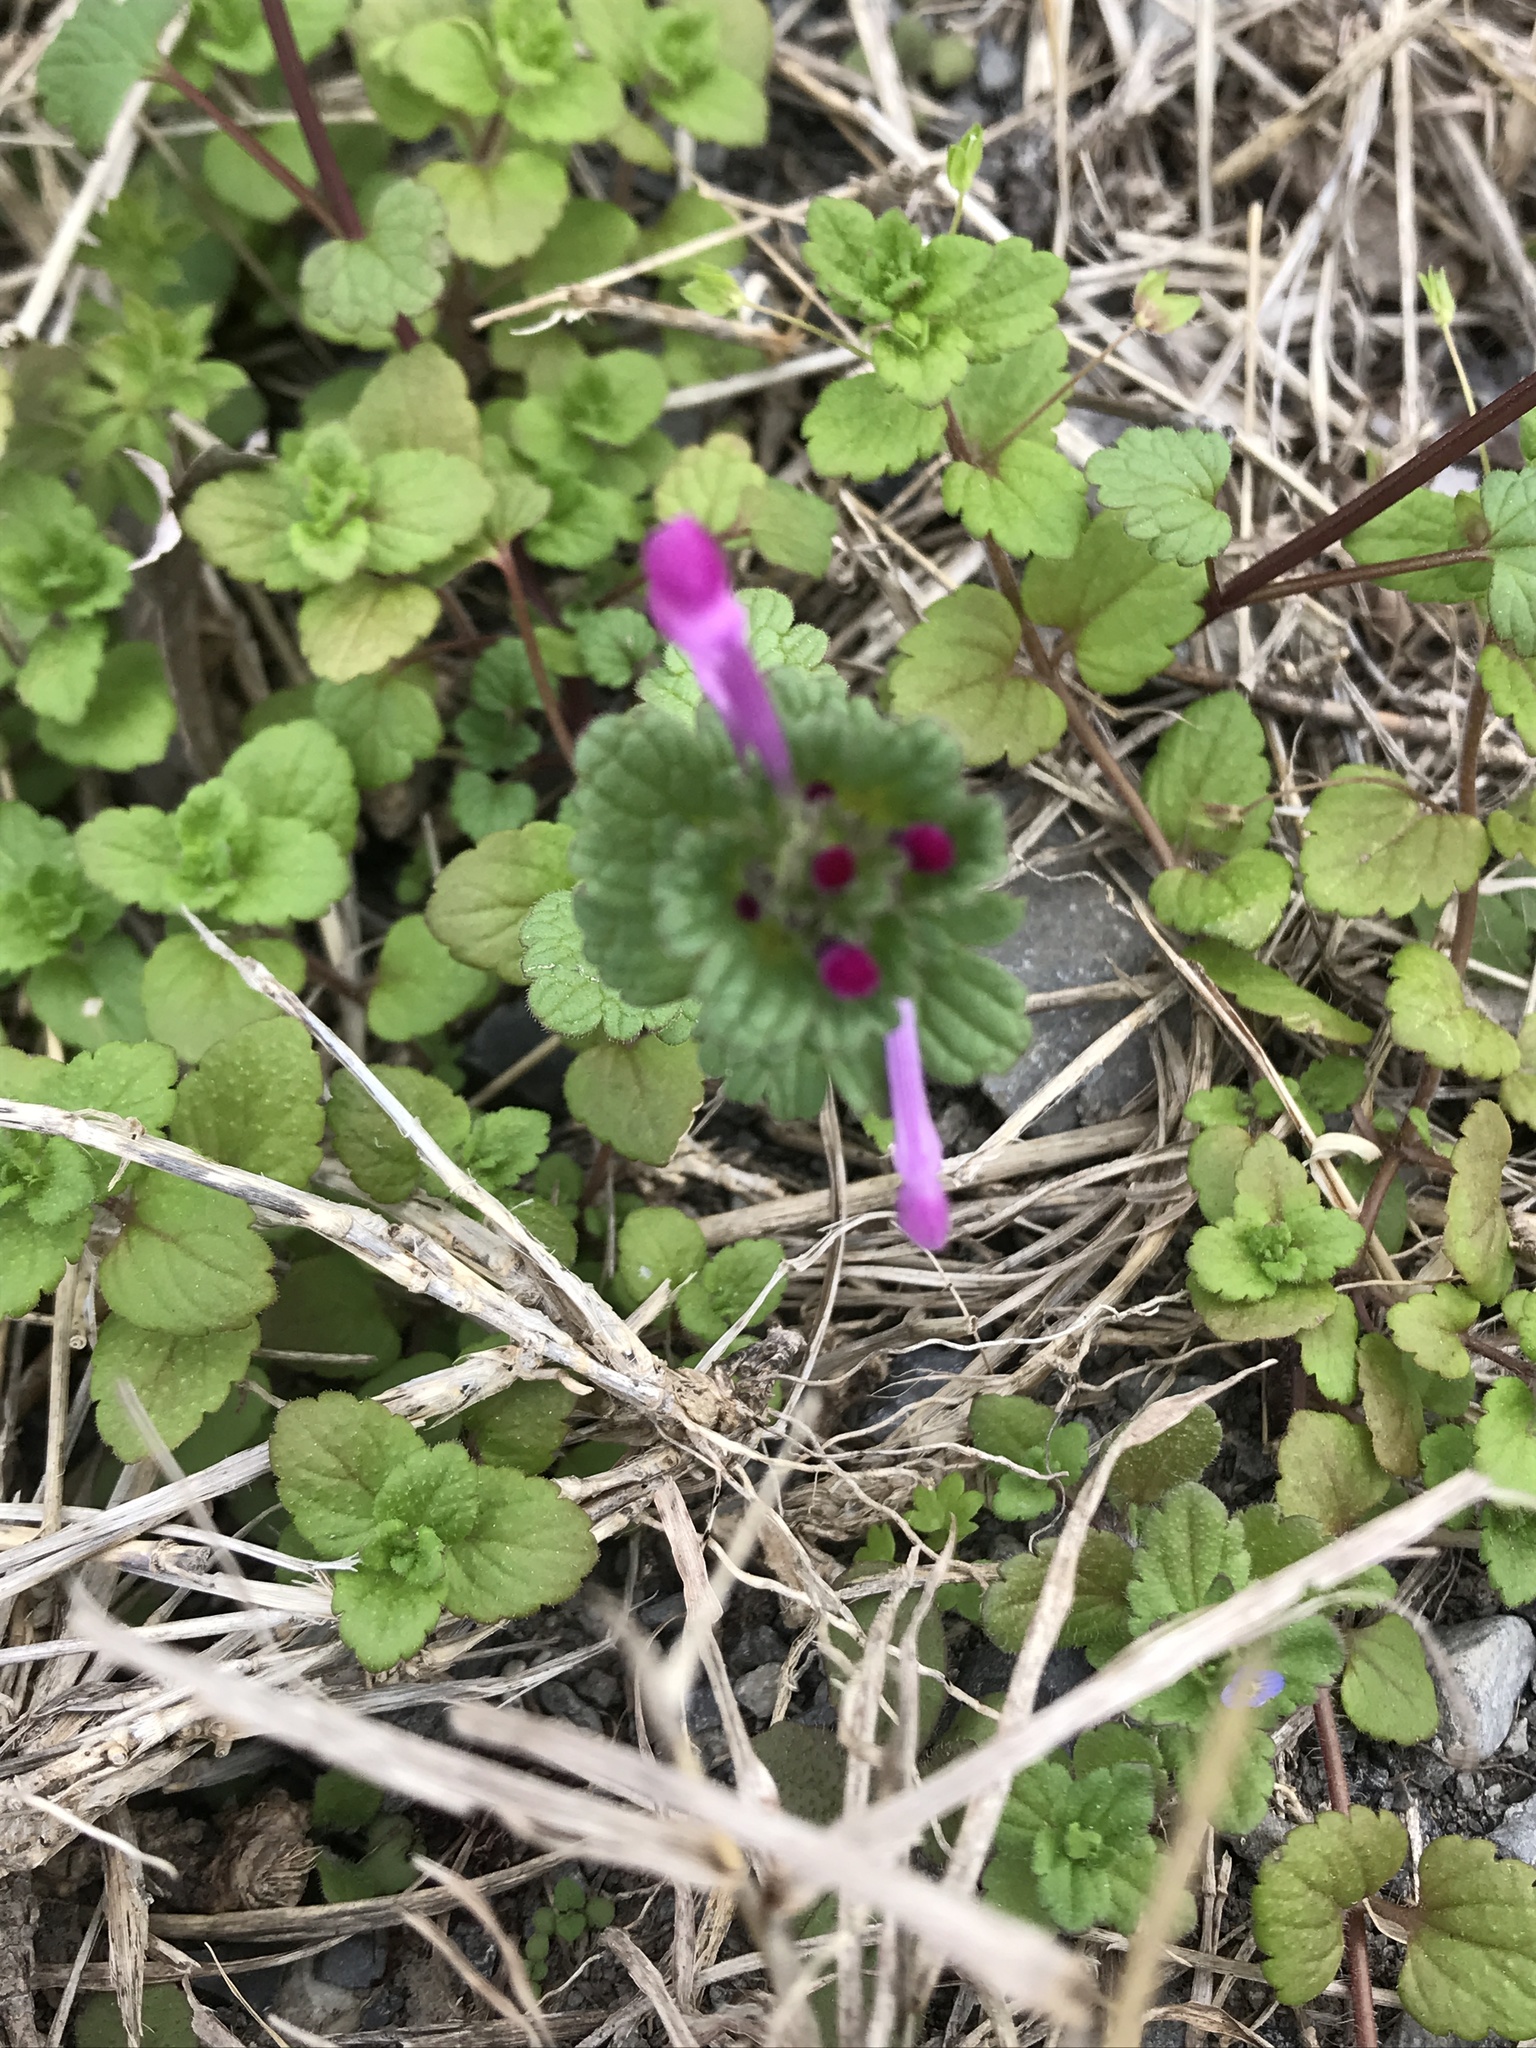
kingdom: Plantae
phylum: Tracheophyta
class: Magnoliopsida
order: Lamiales
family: Lamiaceae
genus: Lamium
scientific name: Lamium amplexicaule
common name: Henbit dead-nettle
